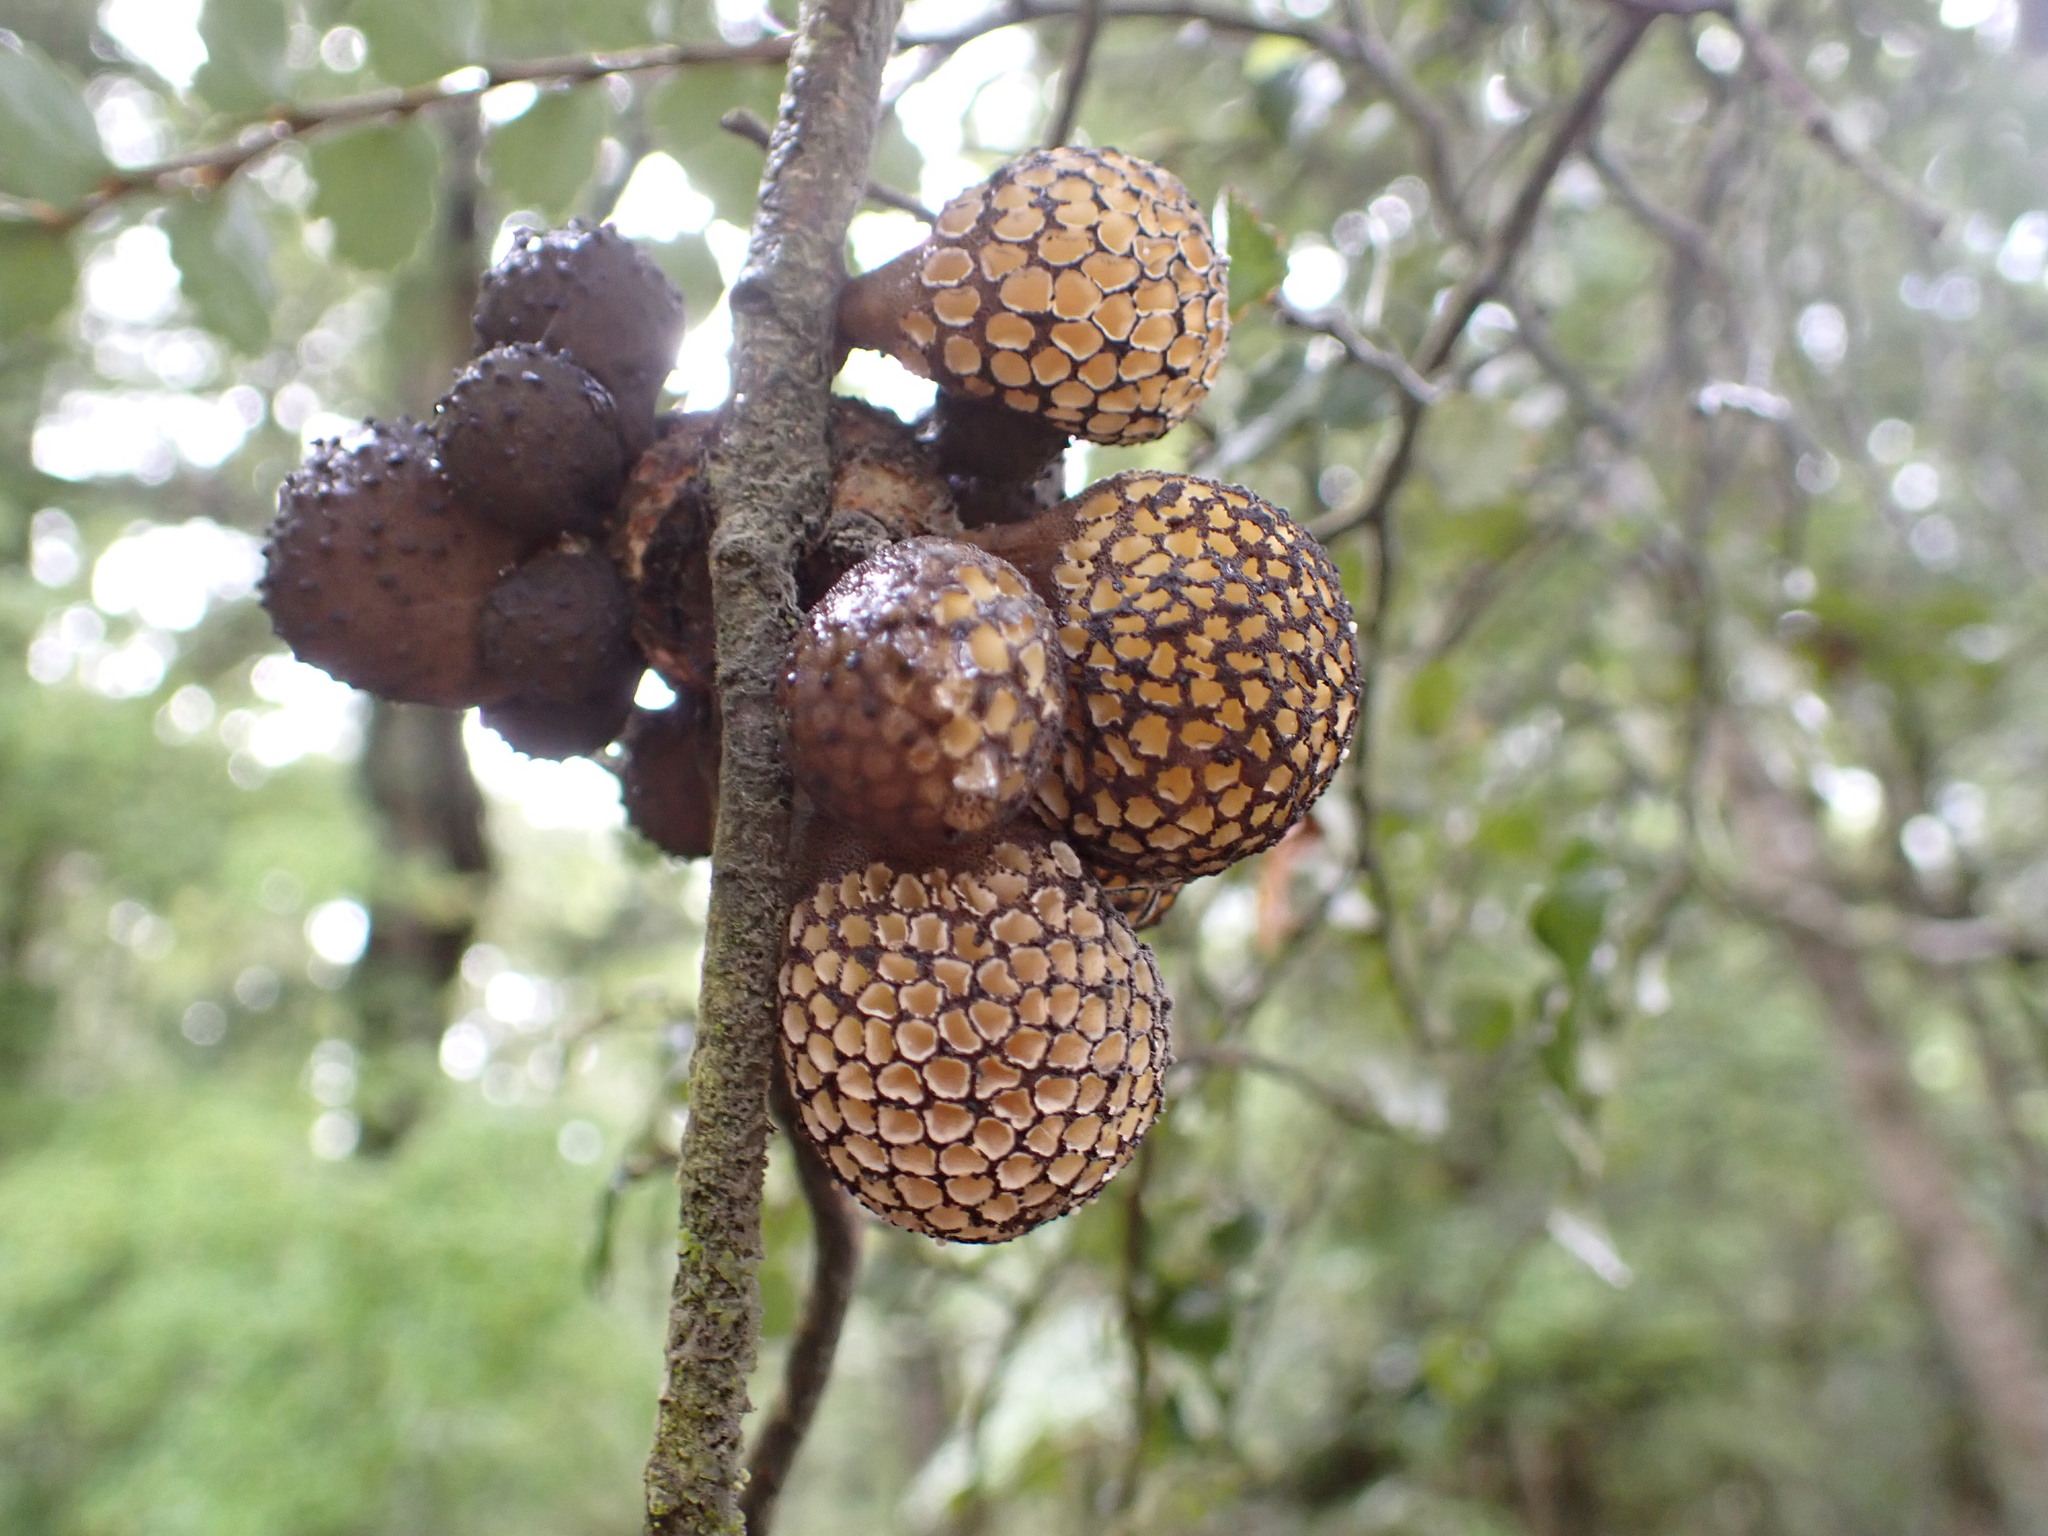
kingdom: Fungi
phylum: Ascomycota
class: Leotiomycetes
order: Cyttariales
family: Cyttariaceae
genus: Cyttaria
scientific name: Cyttaria nigra
